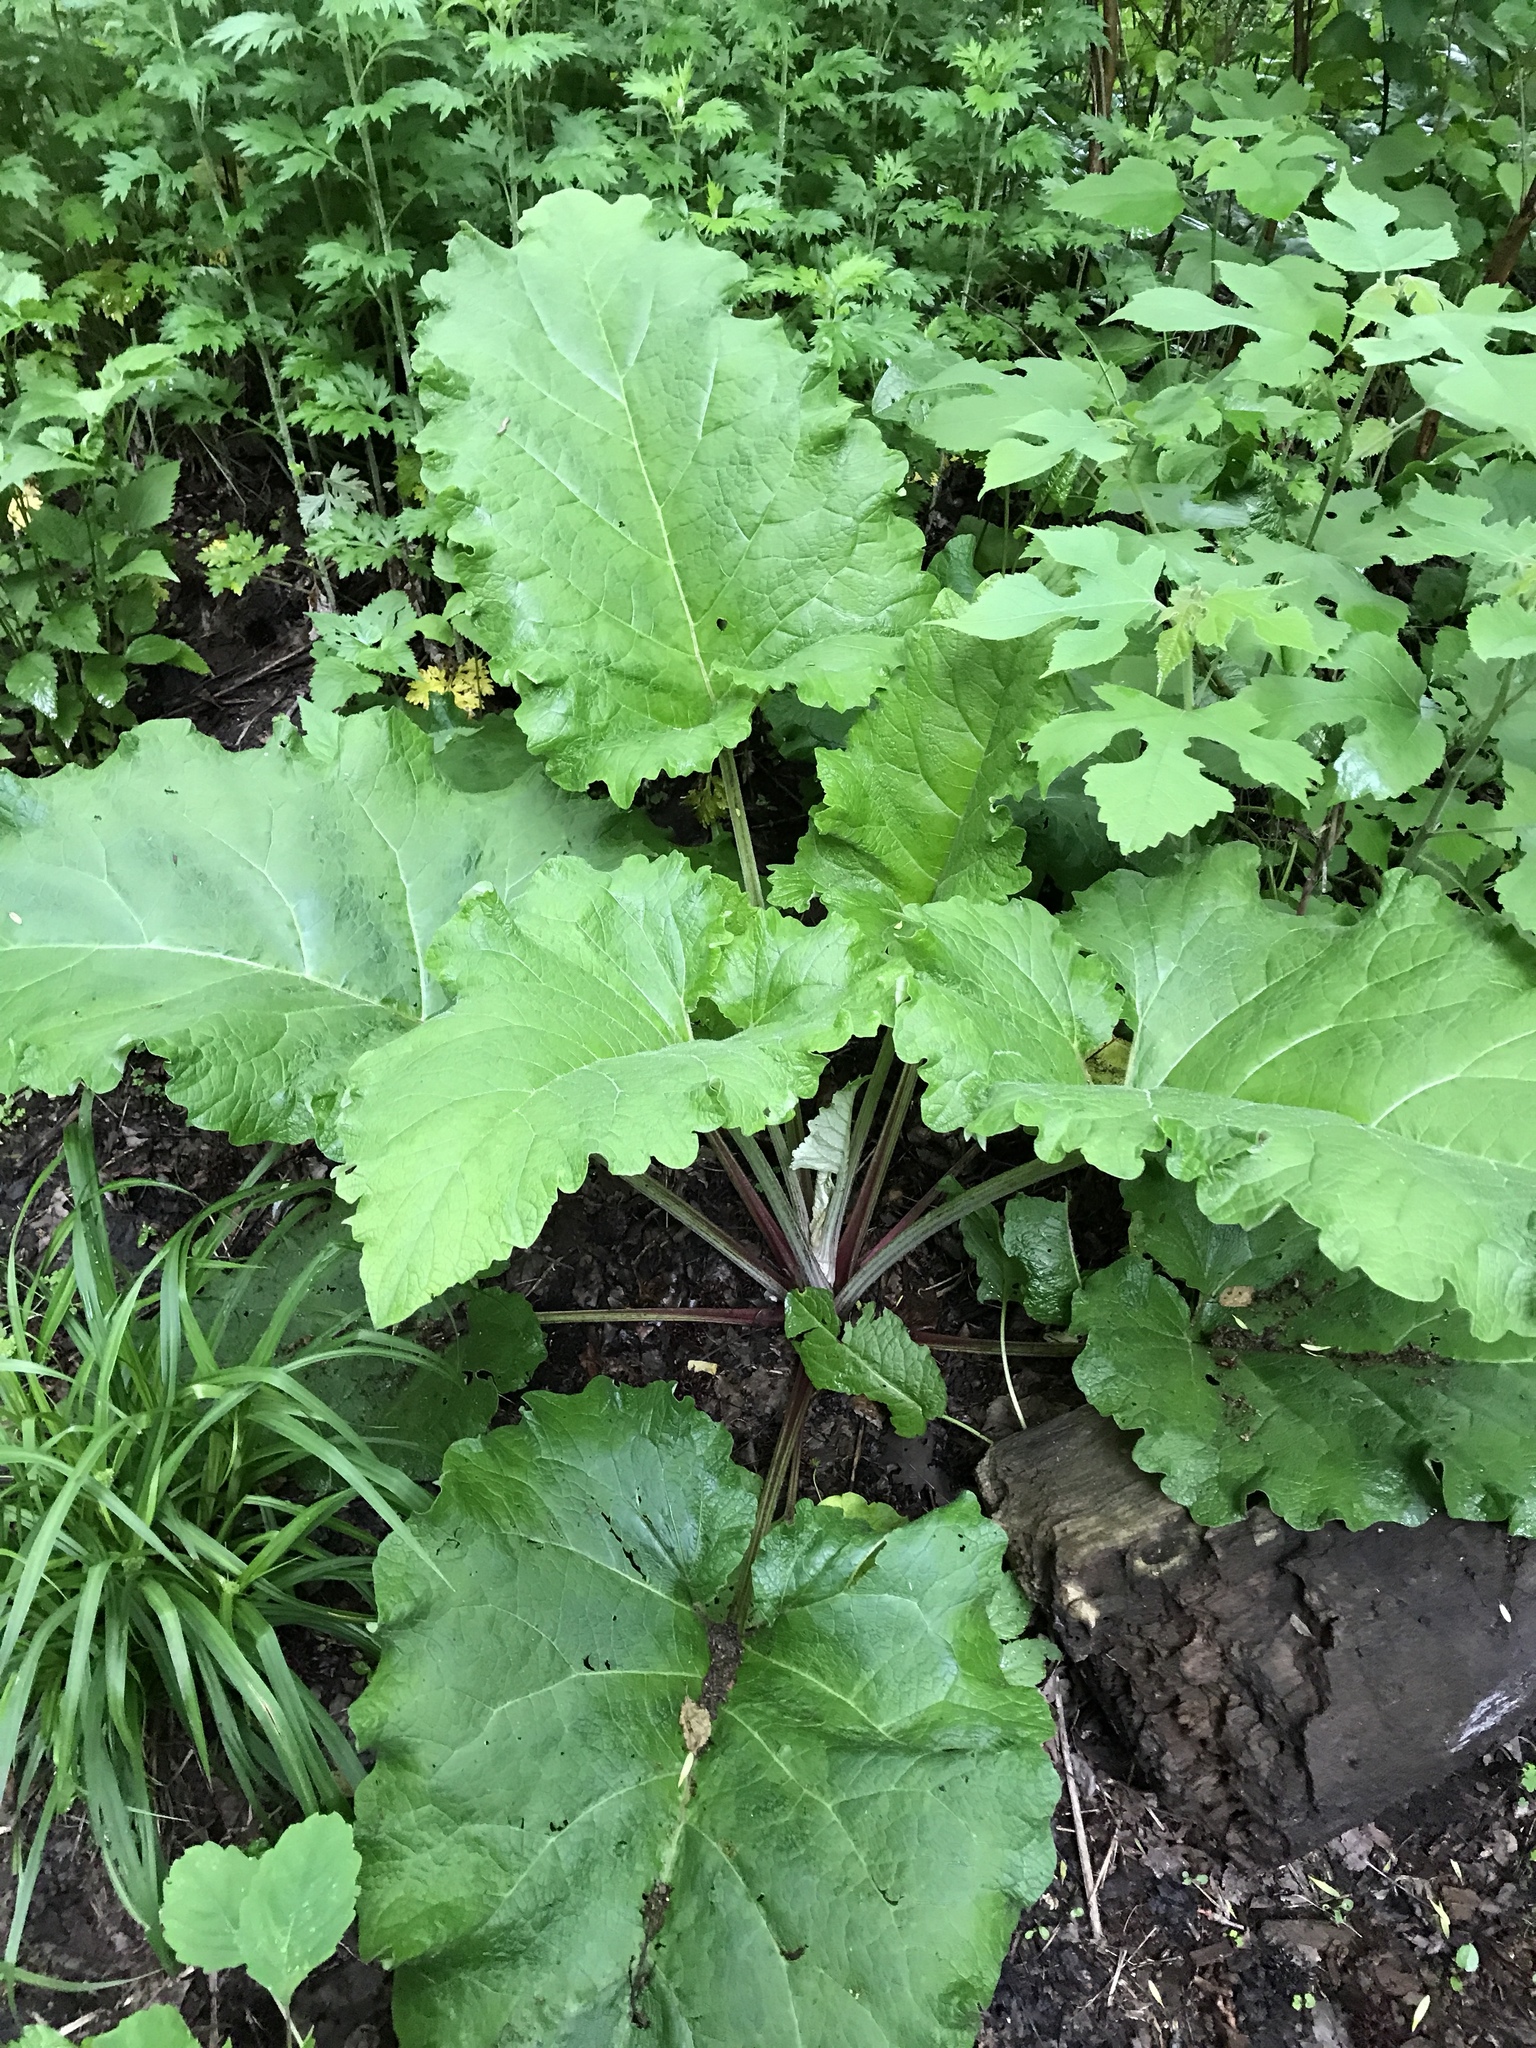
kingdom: Plantae
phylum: Tracheophyta
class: Magnoliopsida
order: Asterales
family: Asteraceae
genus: Arctium
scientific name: Arctium minus
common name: Lesser burdock
